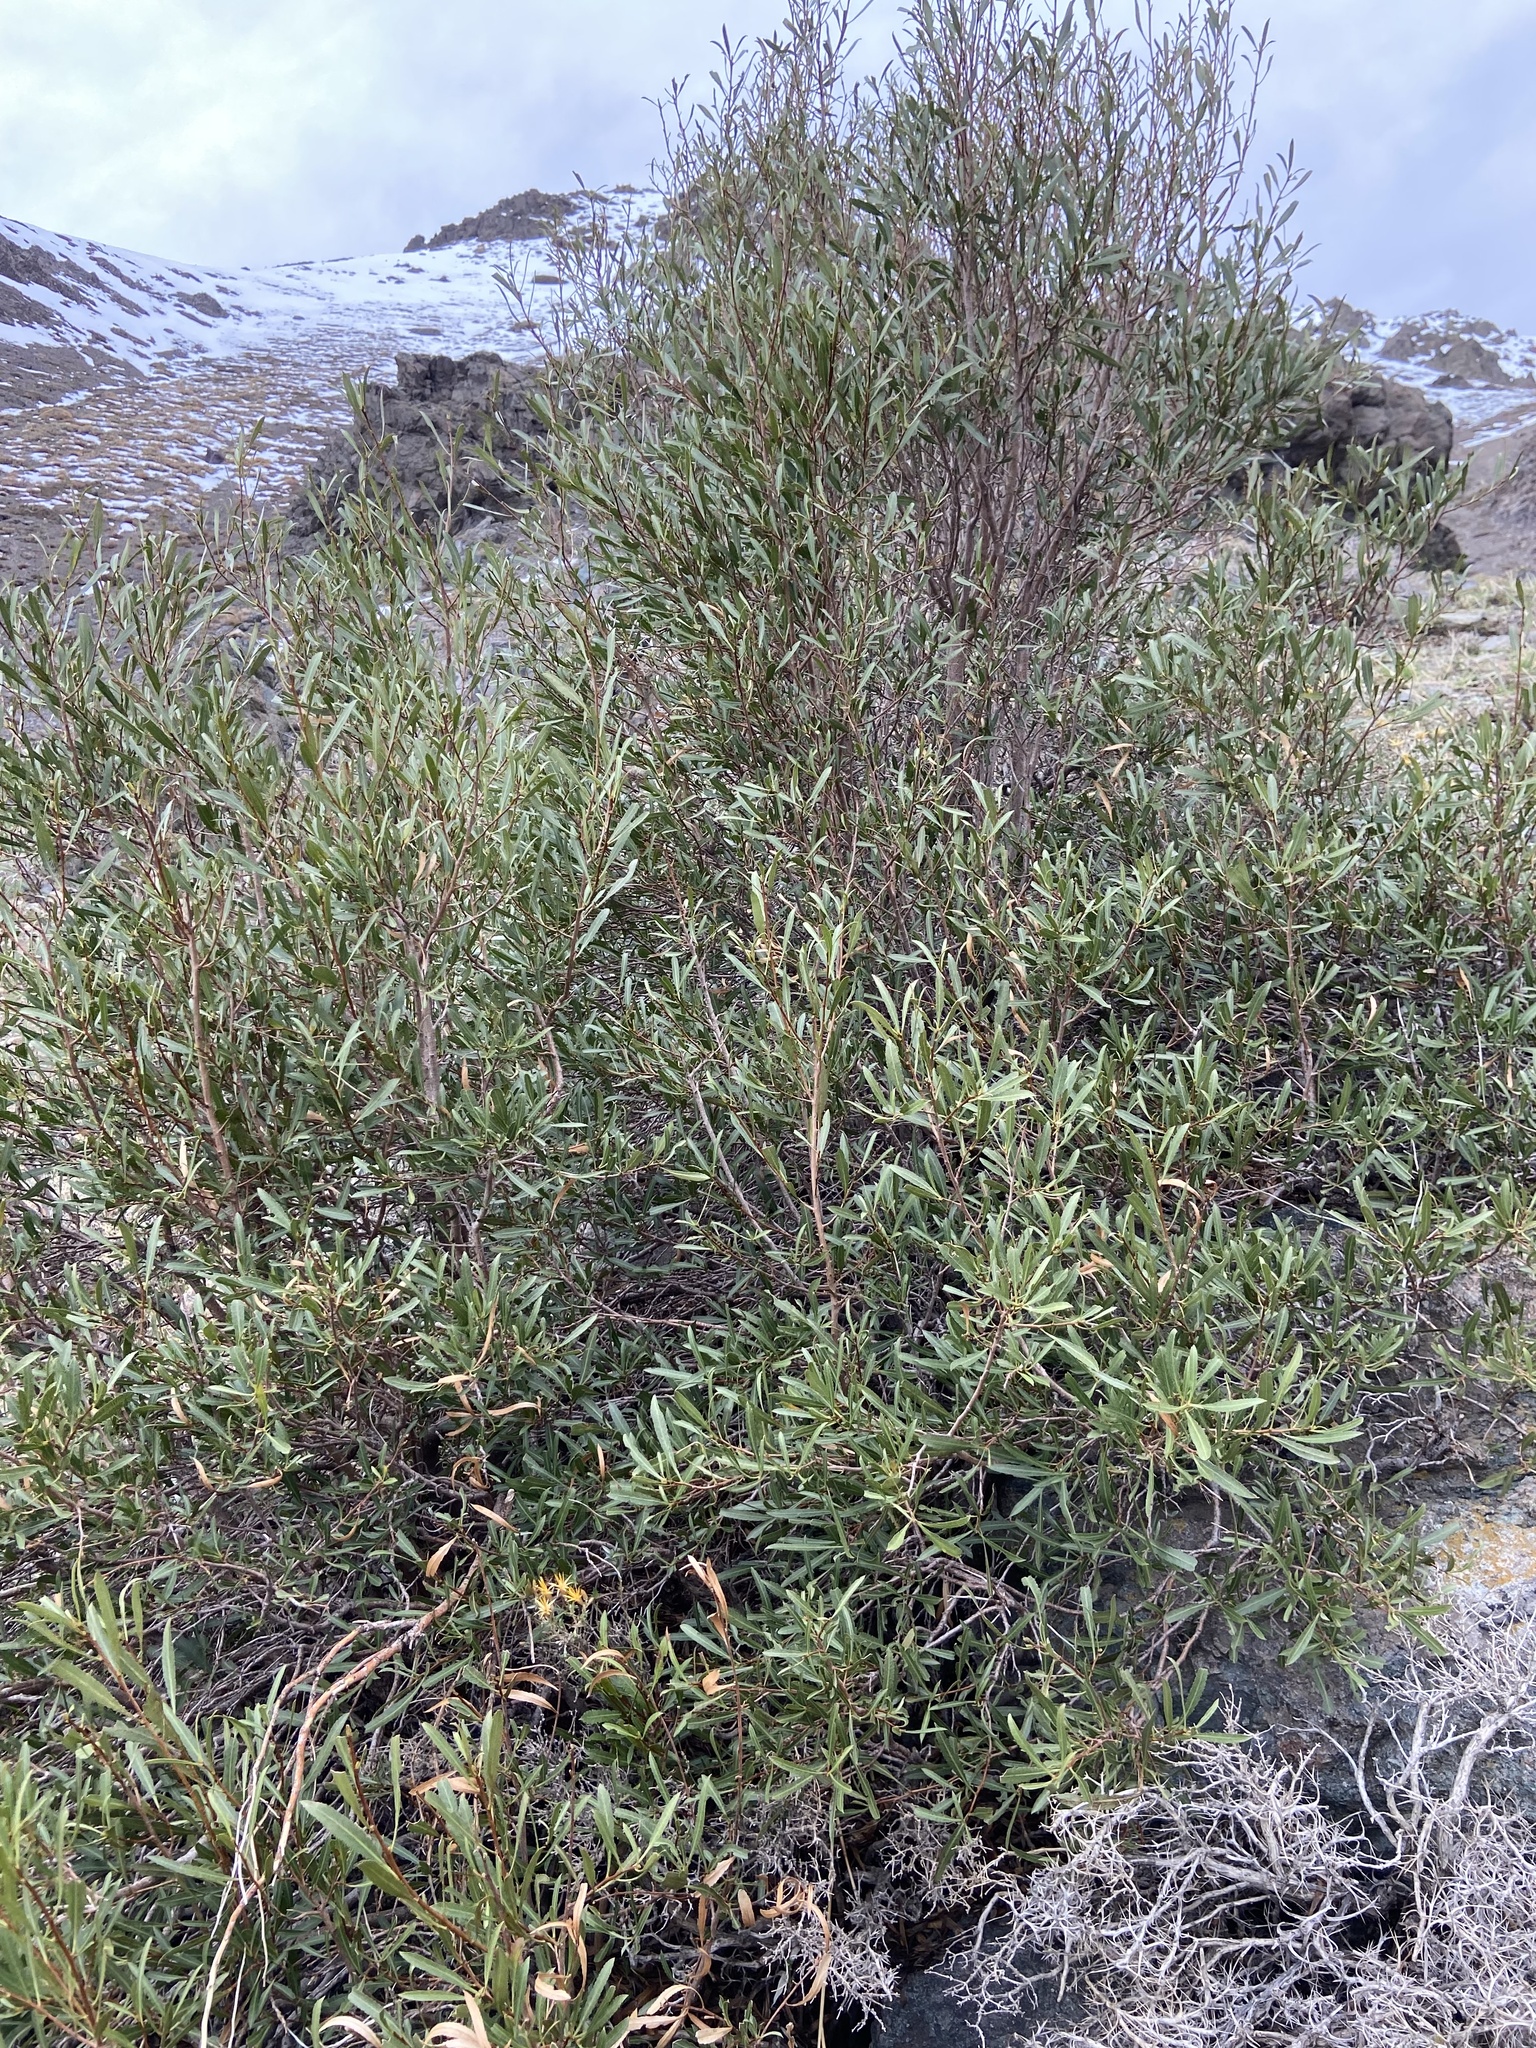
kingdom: Plantae
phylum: Tracheophyta
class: Magnoliopsida
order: Rosales
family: Rosaceae
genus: Kageneckia
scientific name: Kageneckia angustifolia
